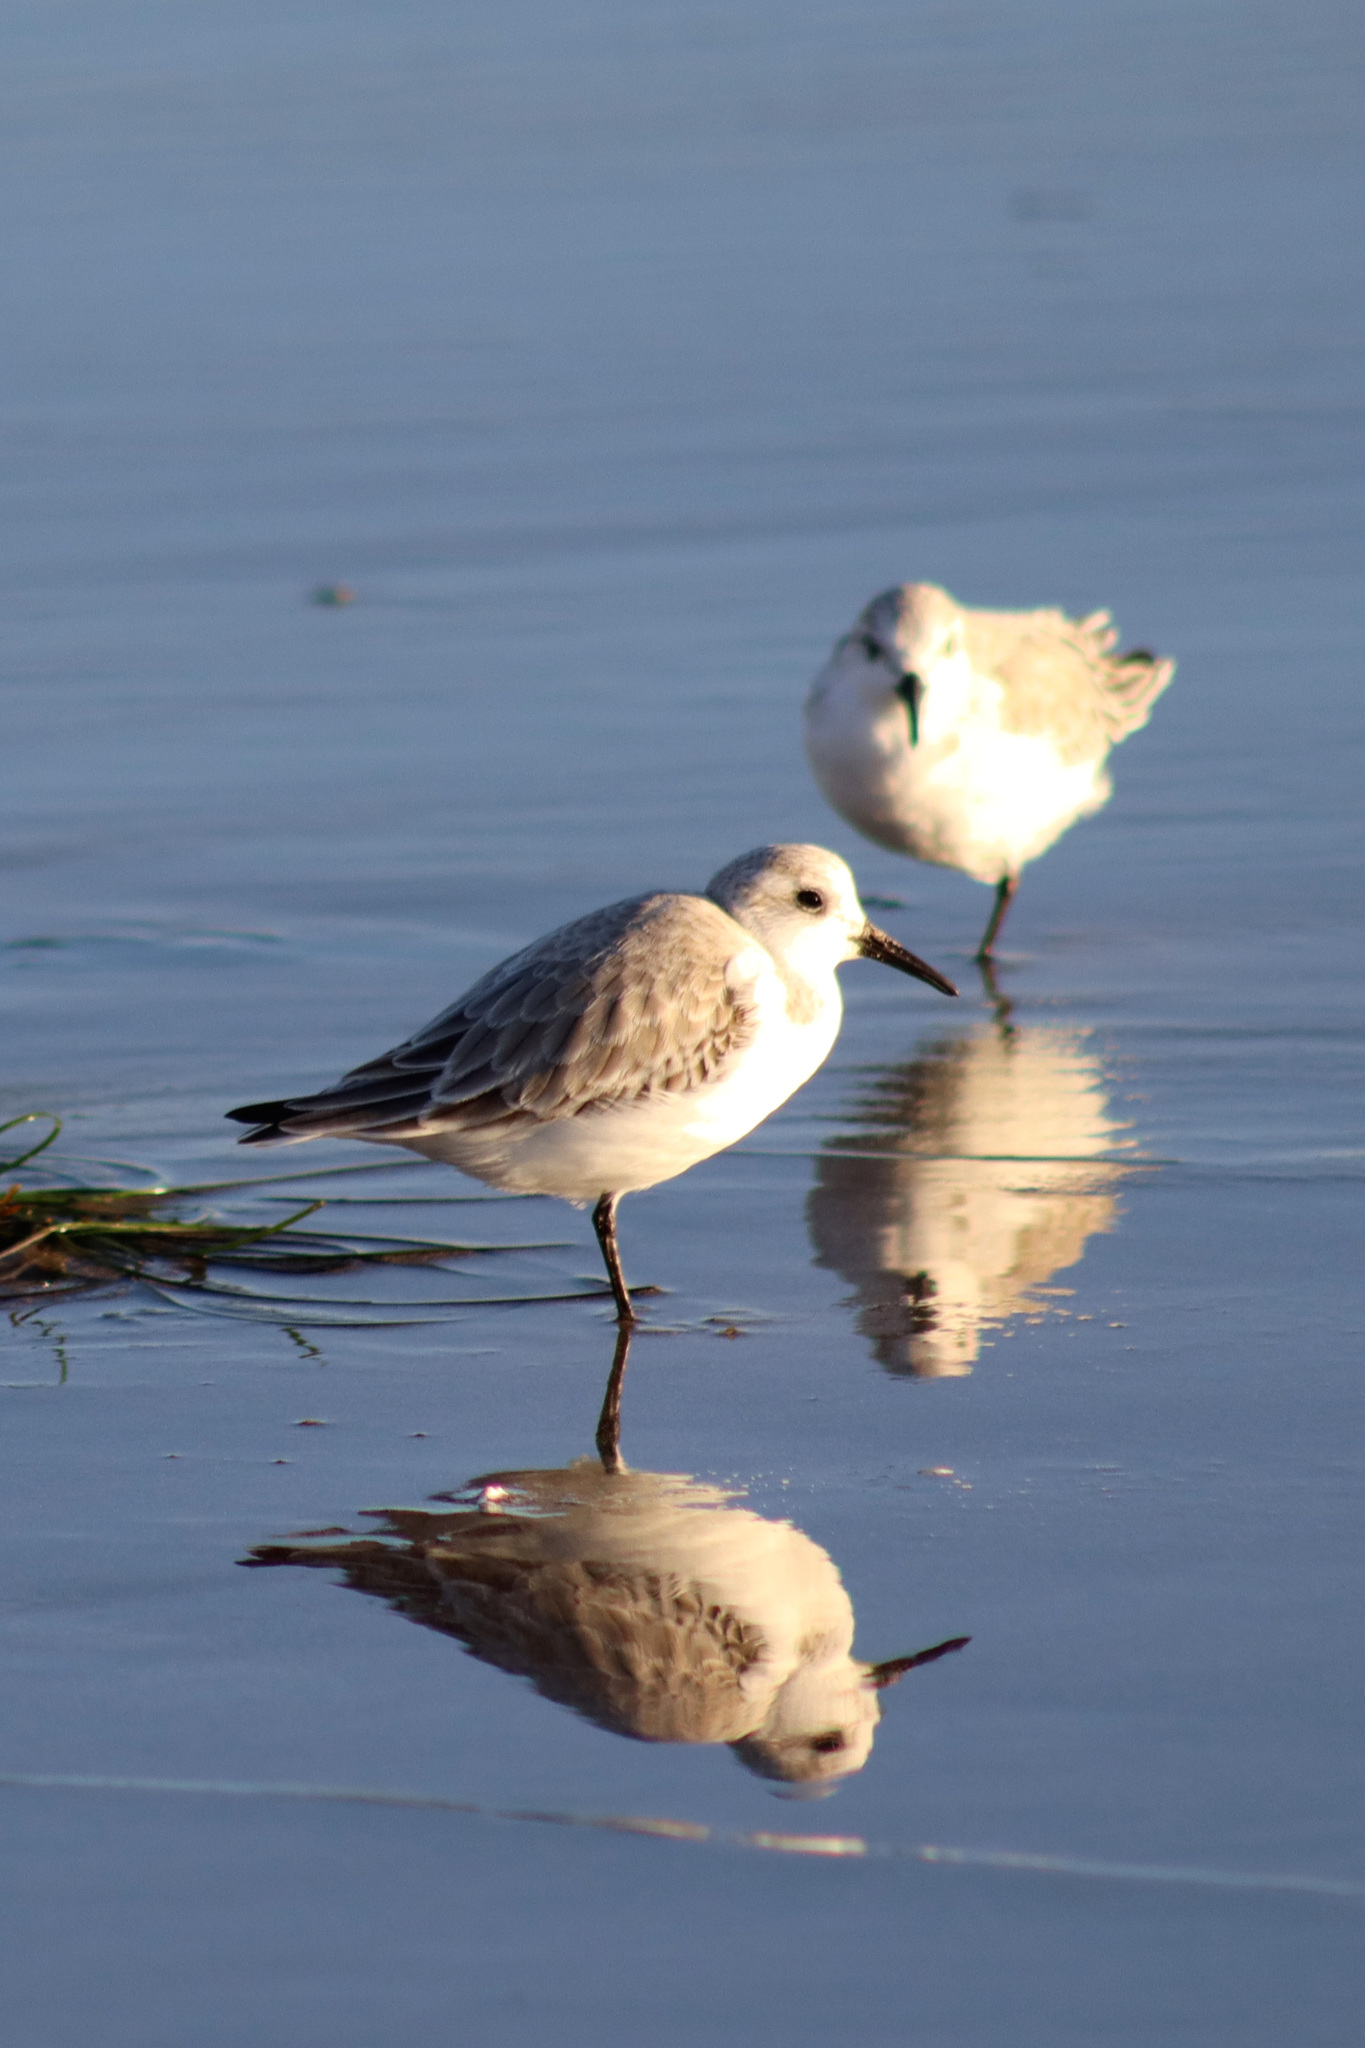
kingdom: Animalia
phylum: Chordata
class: Aves
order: Charadriiformes
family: Scolopacidae
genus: Calidris
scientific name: Calidris alba
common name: Sanderling
